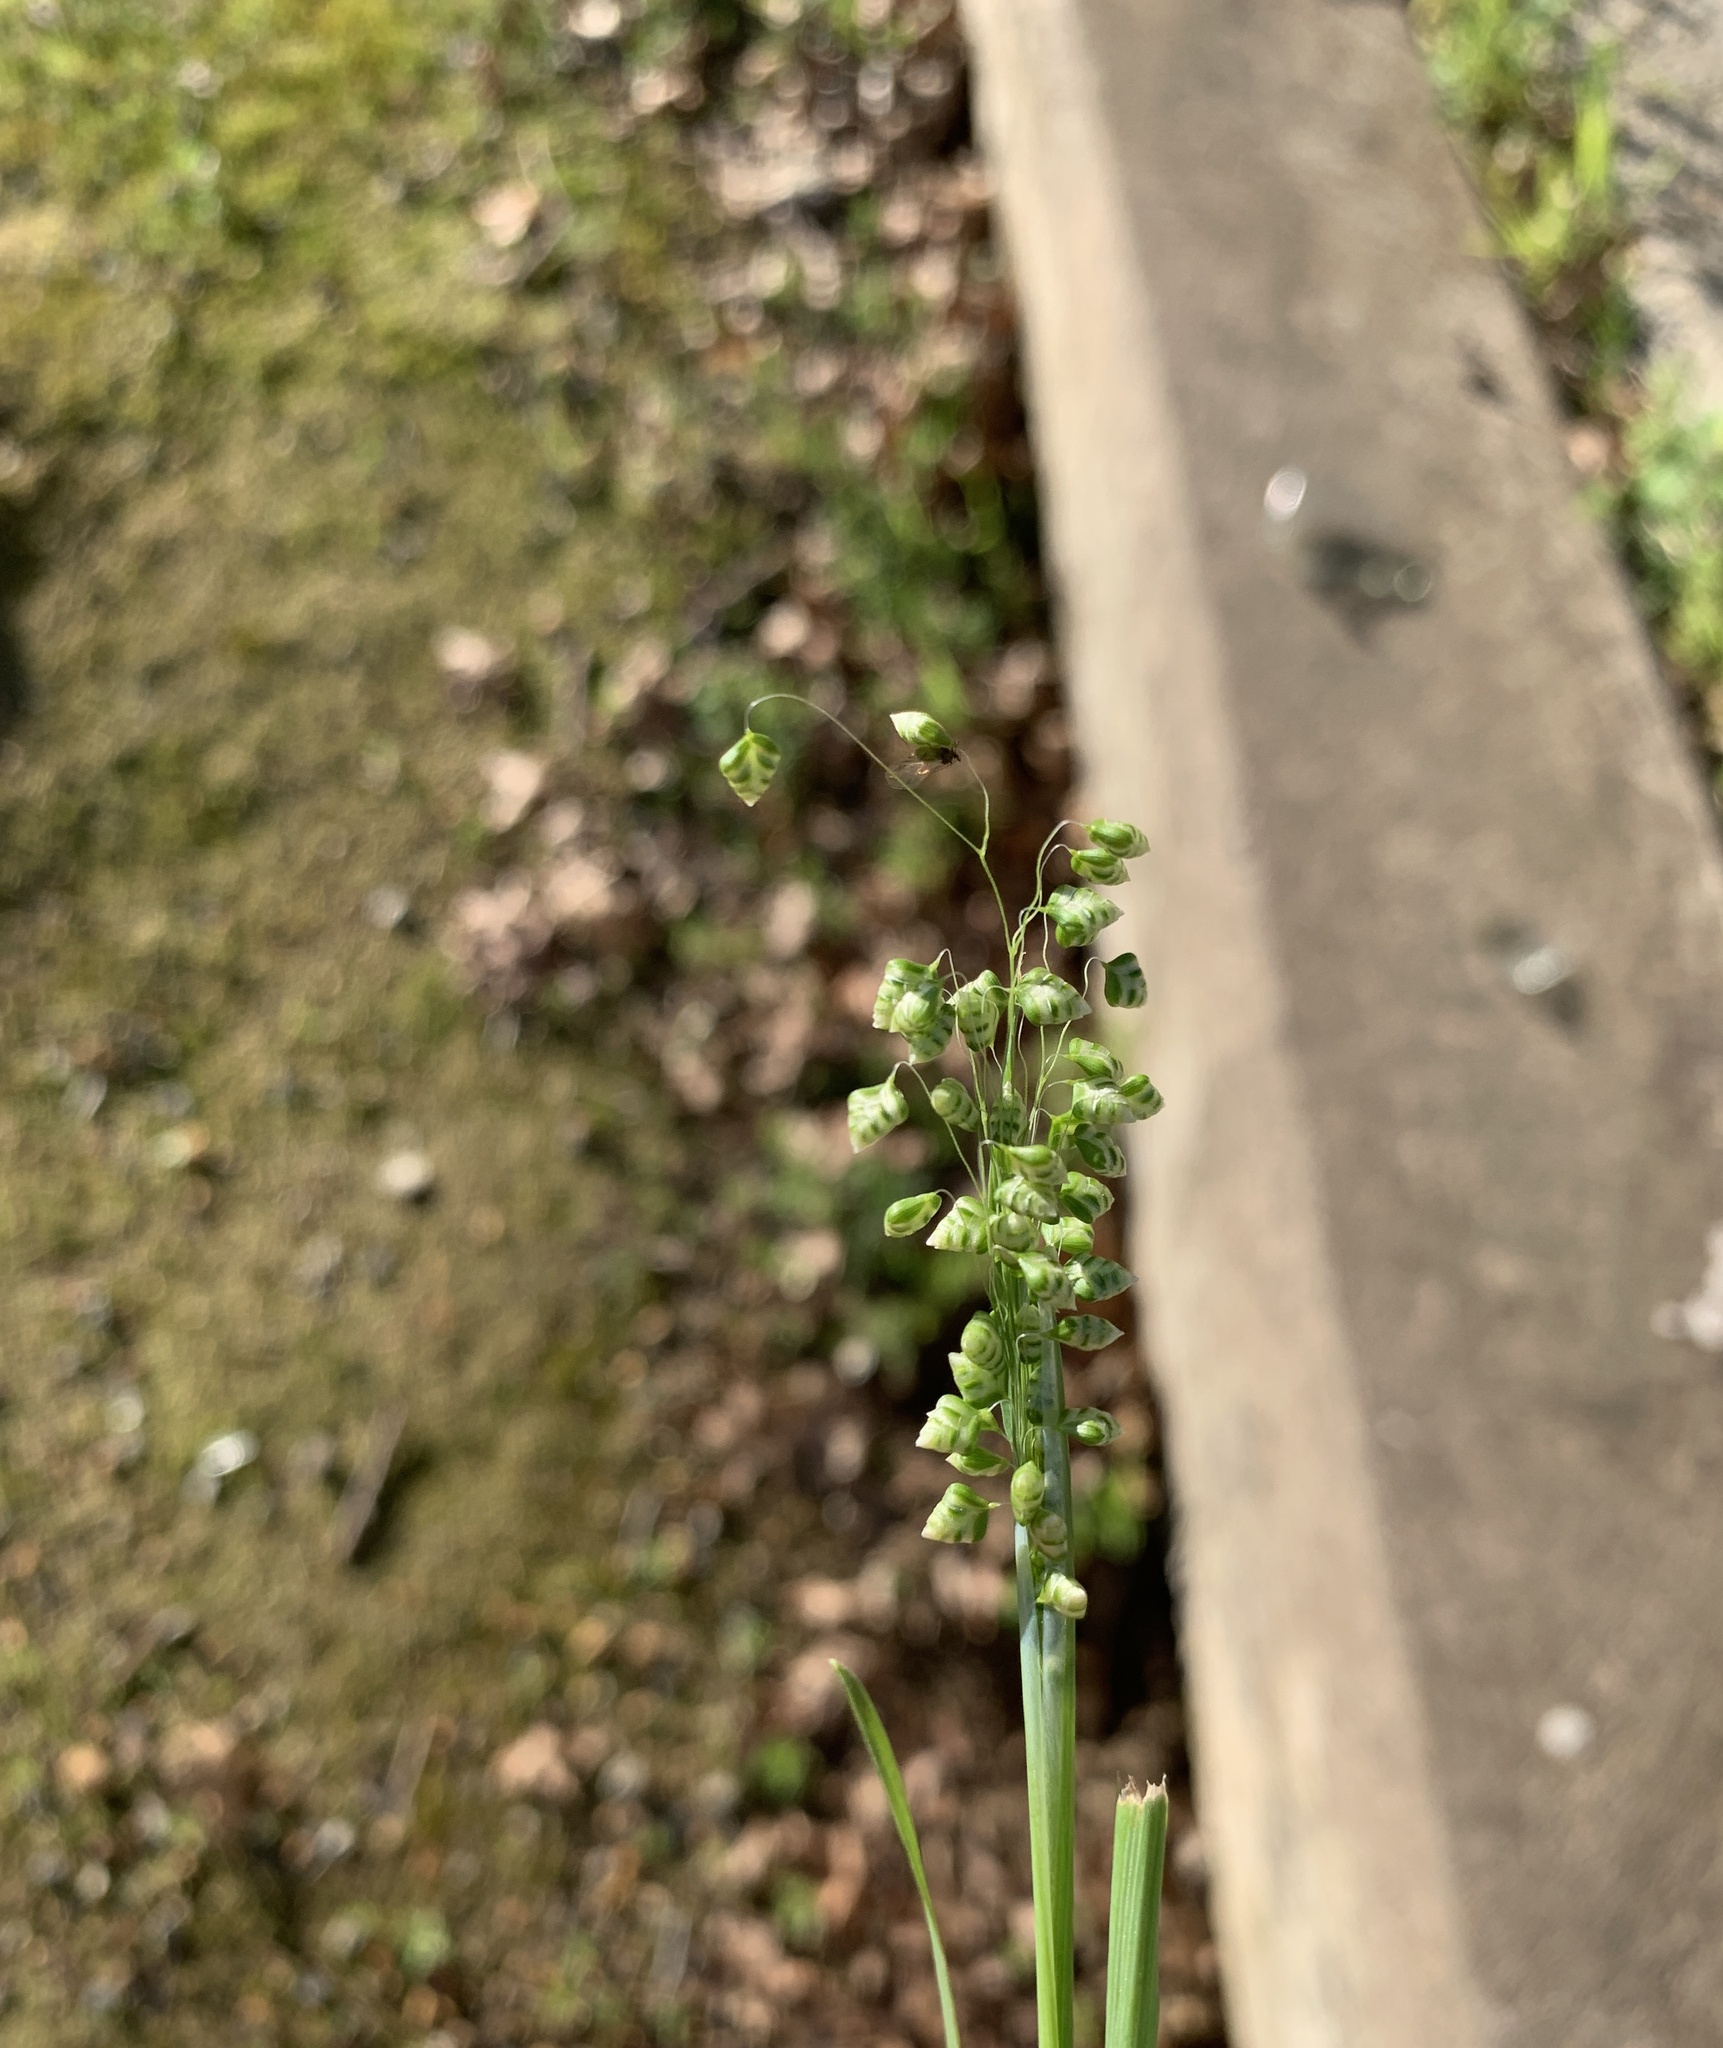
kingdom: Plantae
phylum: Tracheophyta
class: Liliopsida
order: Poales
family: Poaceae
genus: Briza
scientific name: Briza minor
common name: Lesser quaking-grass
